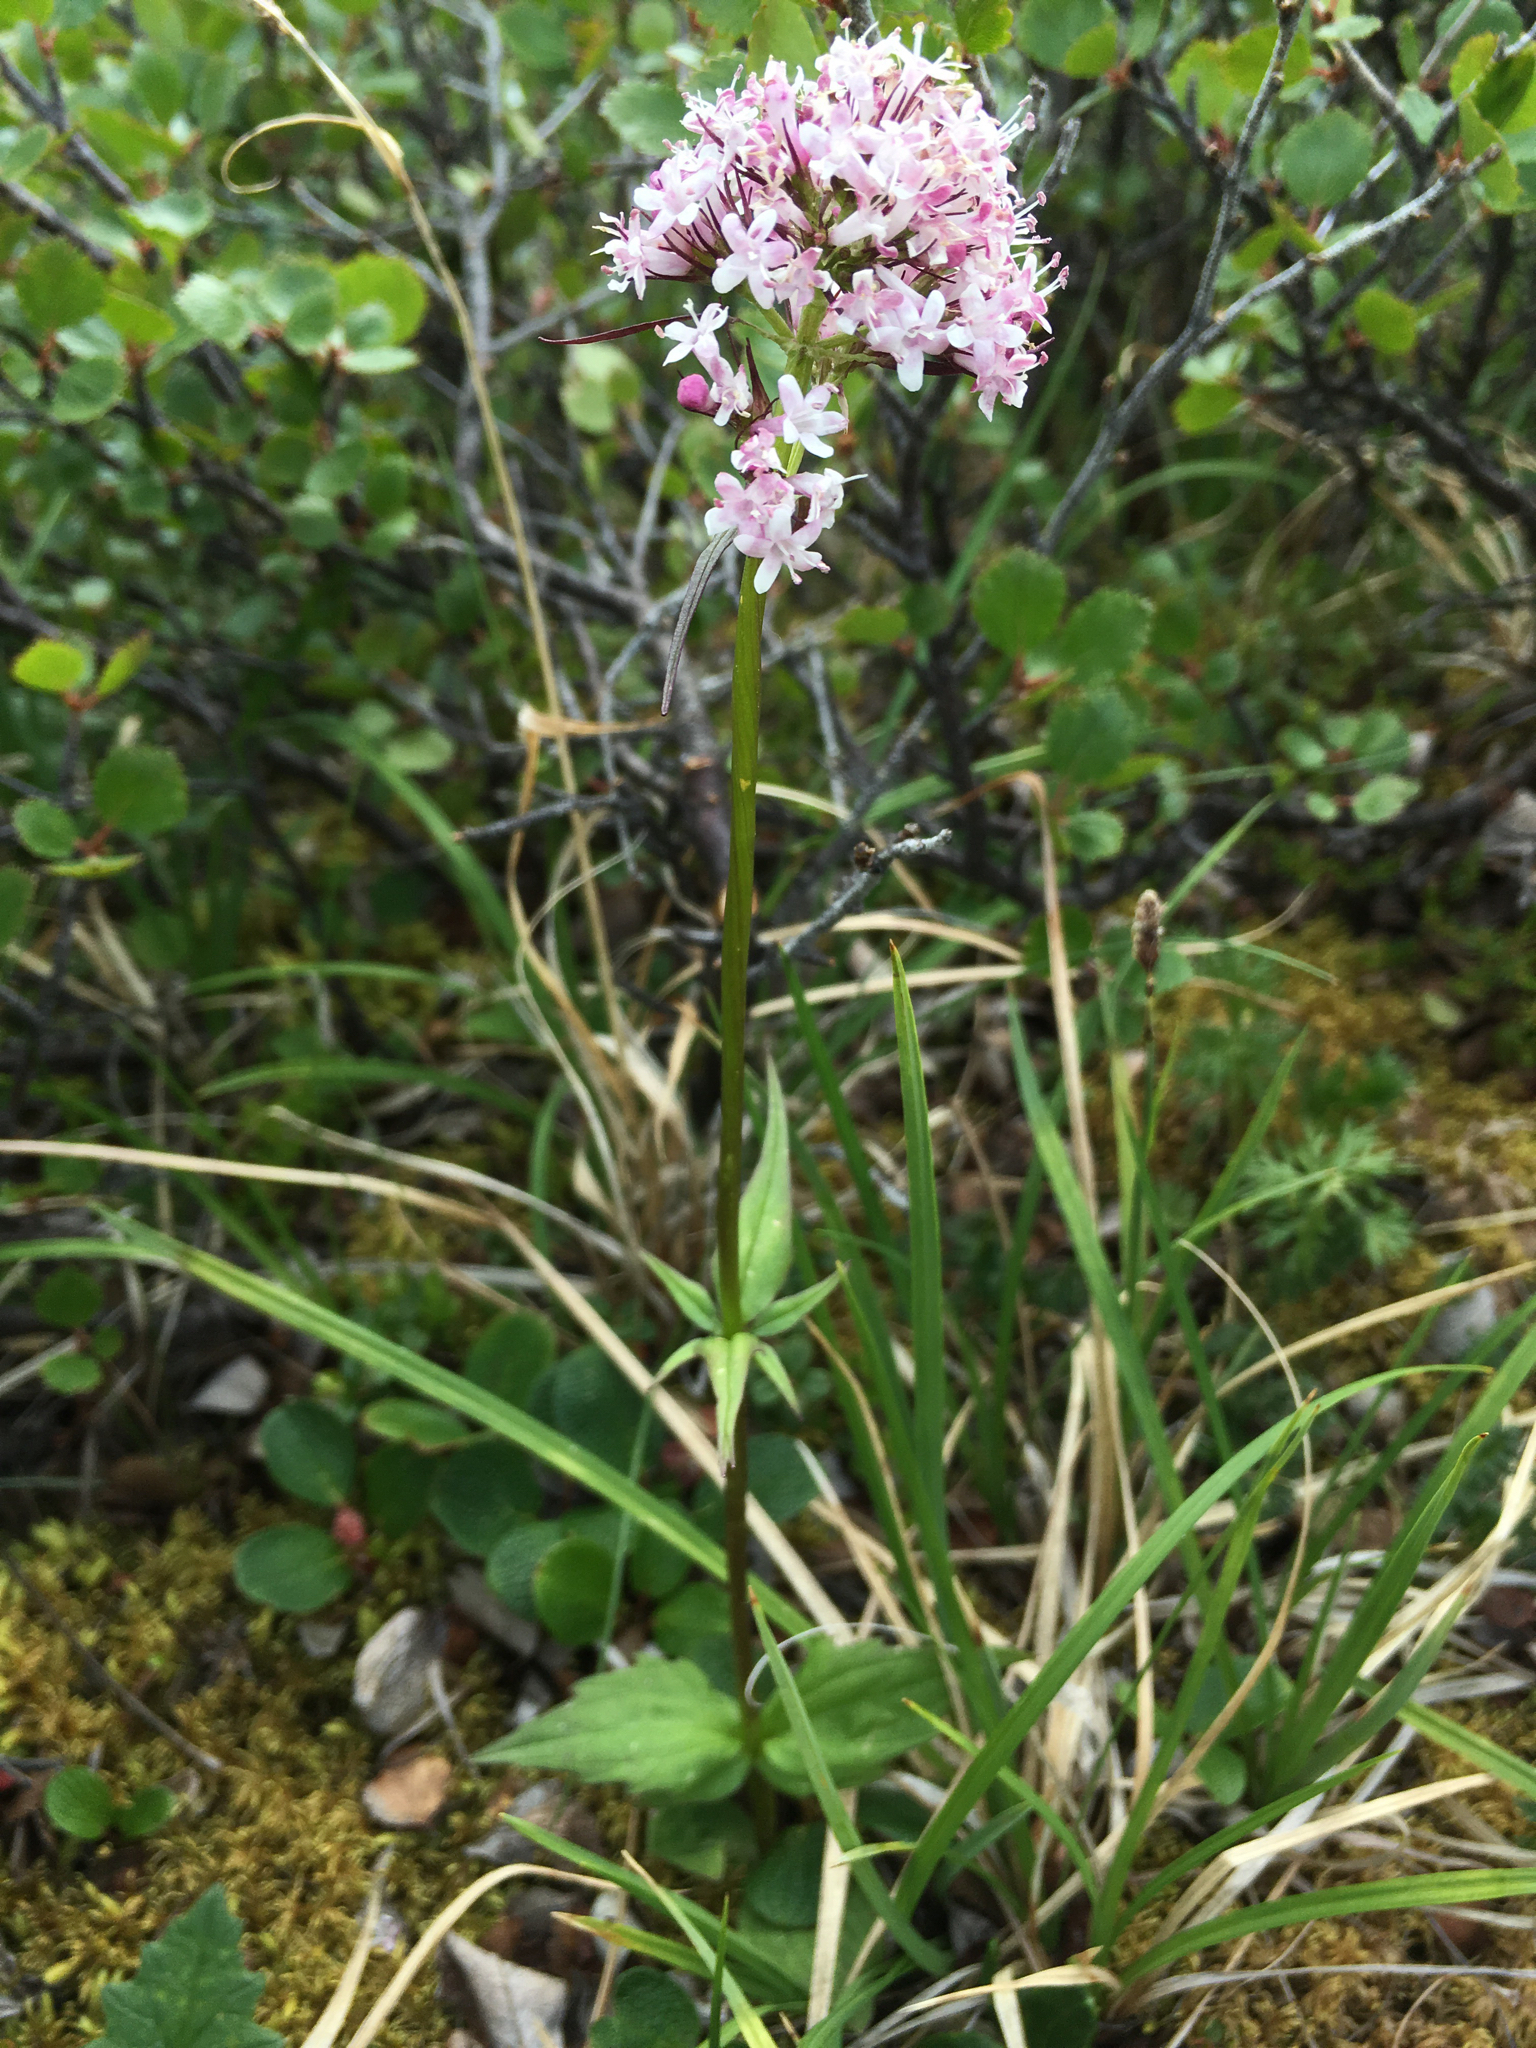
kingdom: Plantae
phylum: Tracheophyta
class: Magnoliopsida
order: Dipsacales
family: Caprifoliaceae
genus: Valeriana
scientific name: Valeriana capitata
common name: Capitate valerian
